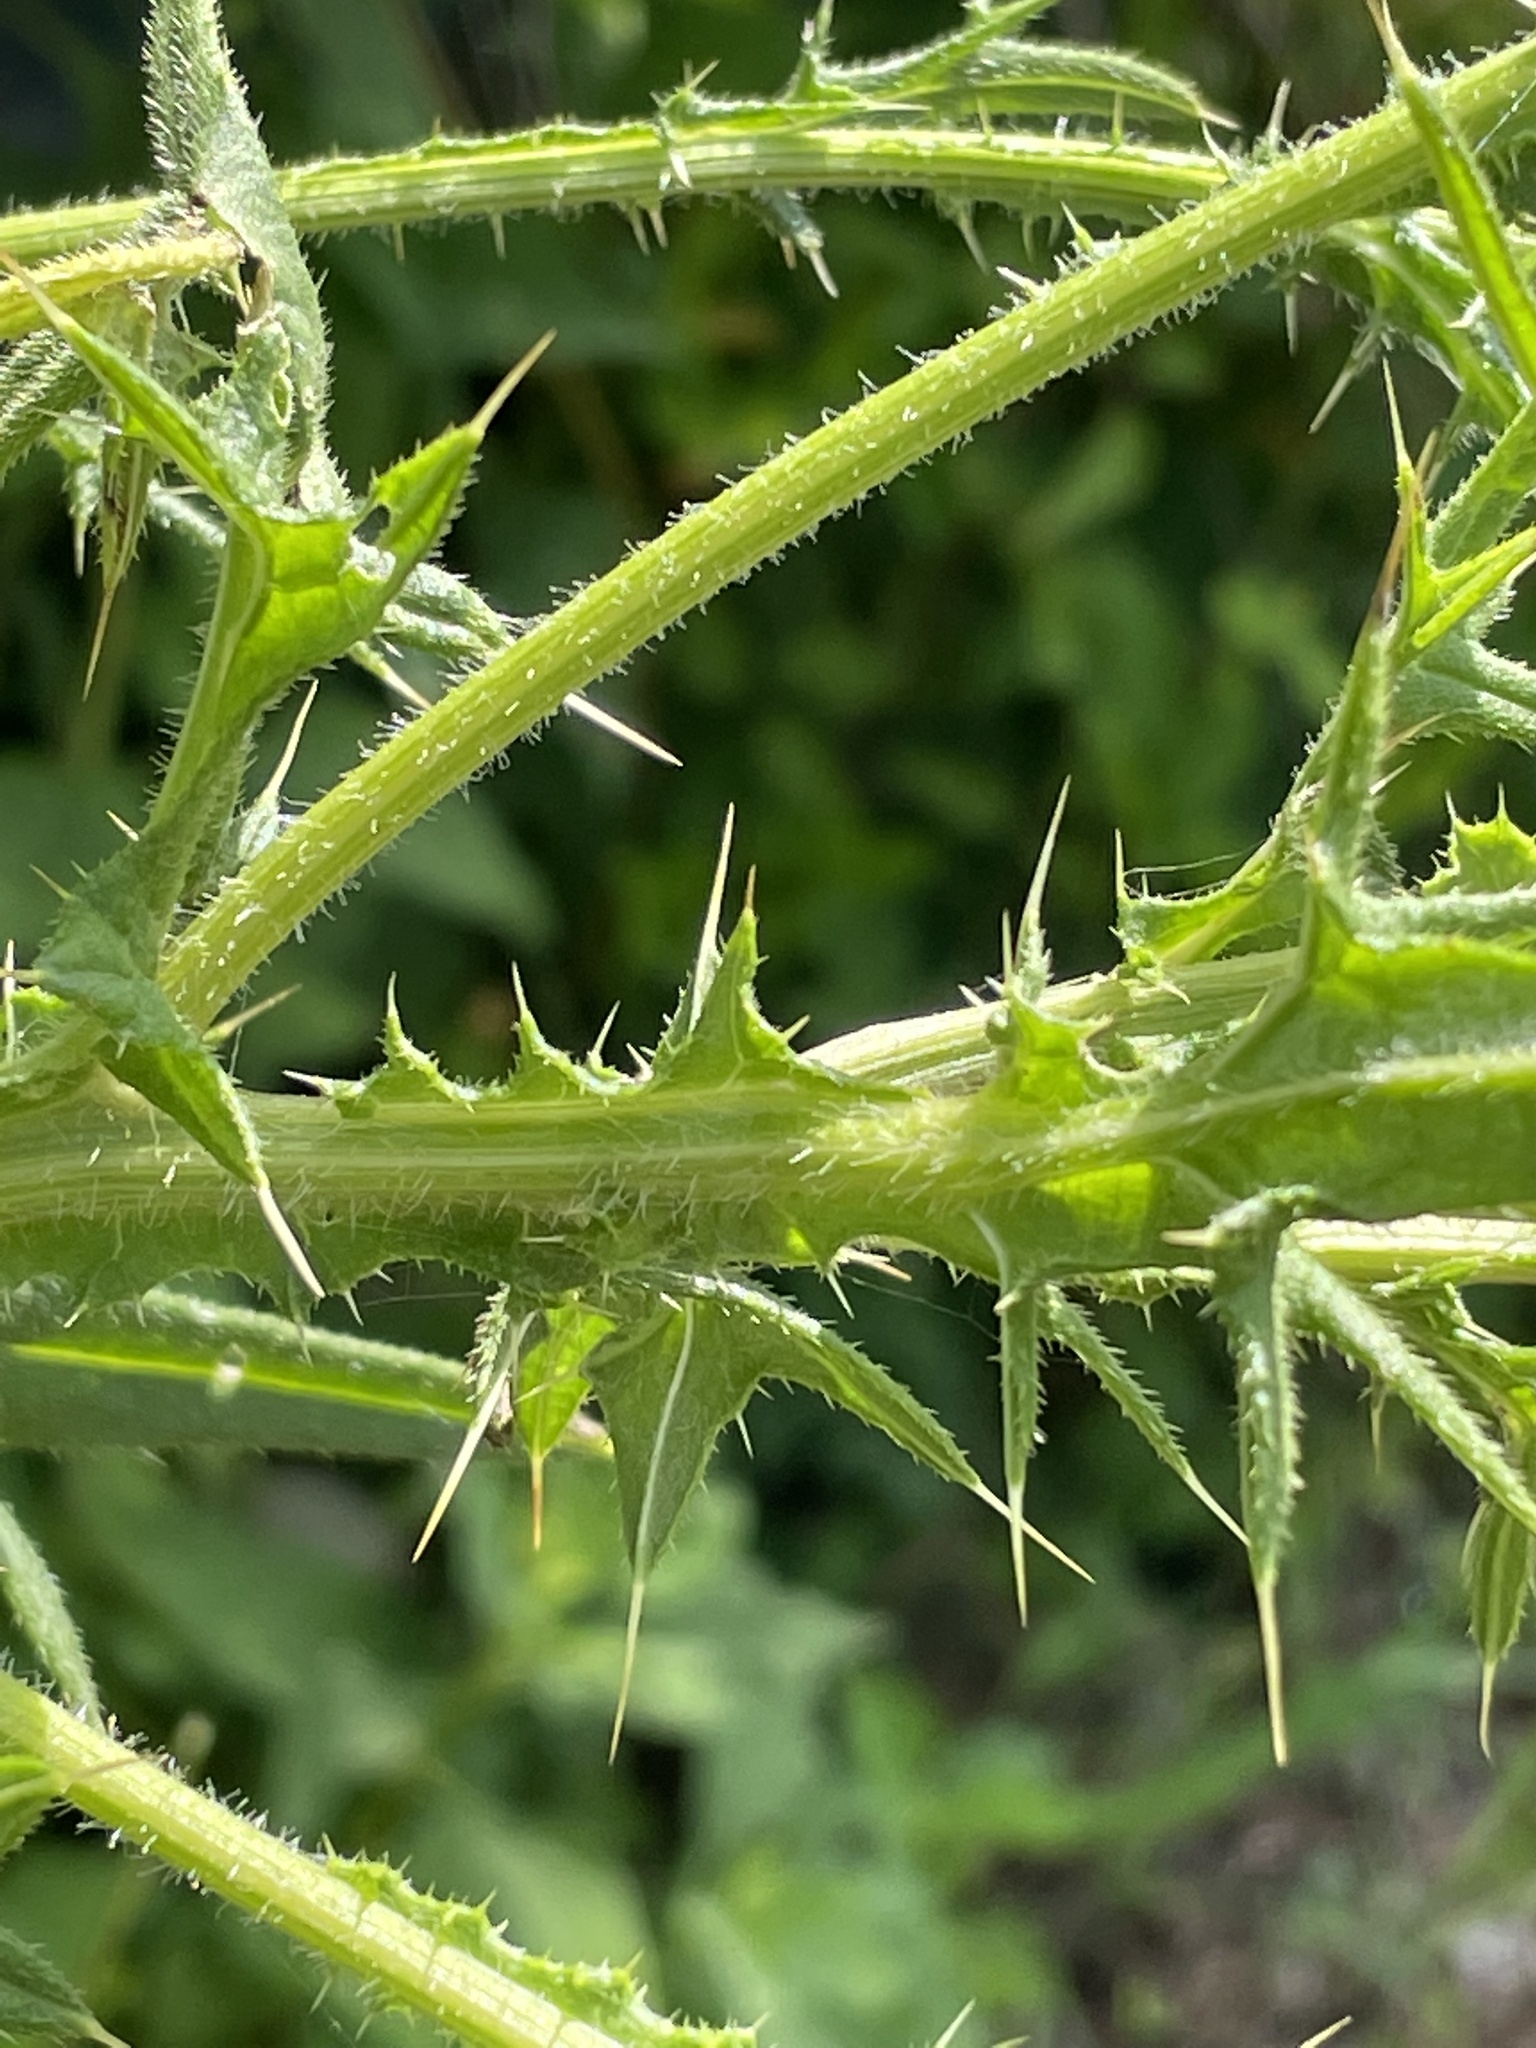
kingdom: Plantae
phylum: Tracheophyta
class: Magnoliopsida
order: Asterales
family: Asteraceae
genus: Cirsium
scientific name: Cirsium vulgare
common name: Bull thistle
